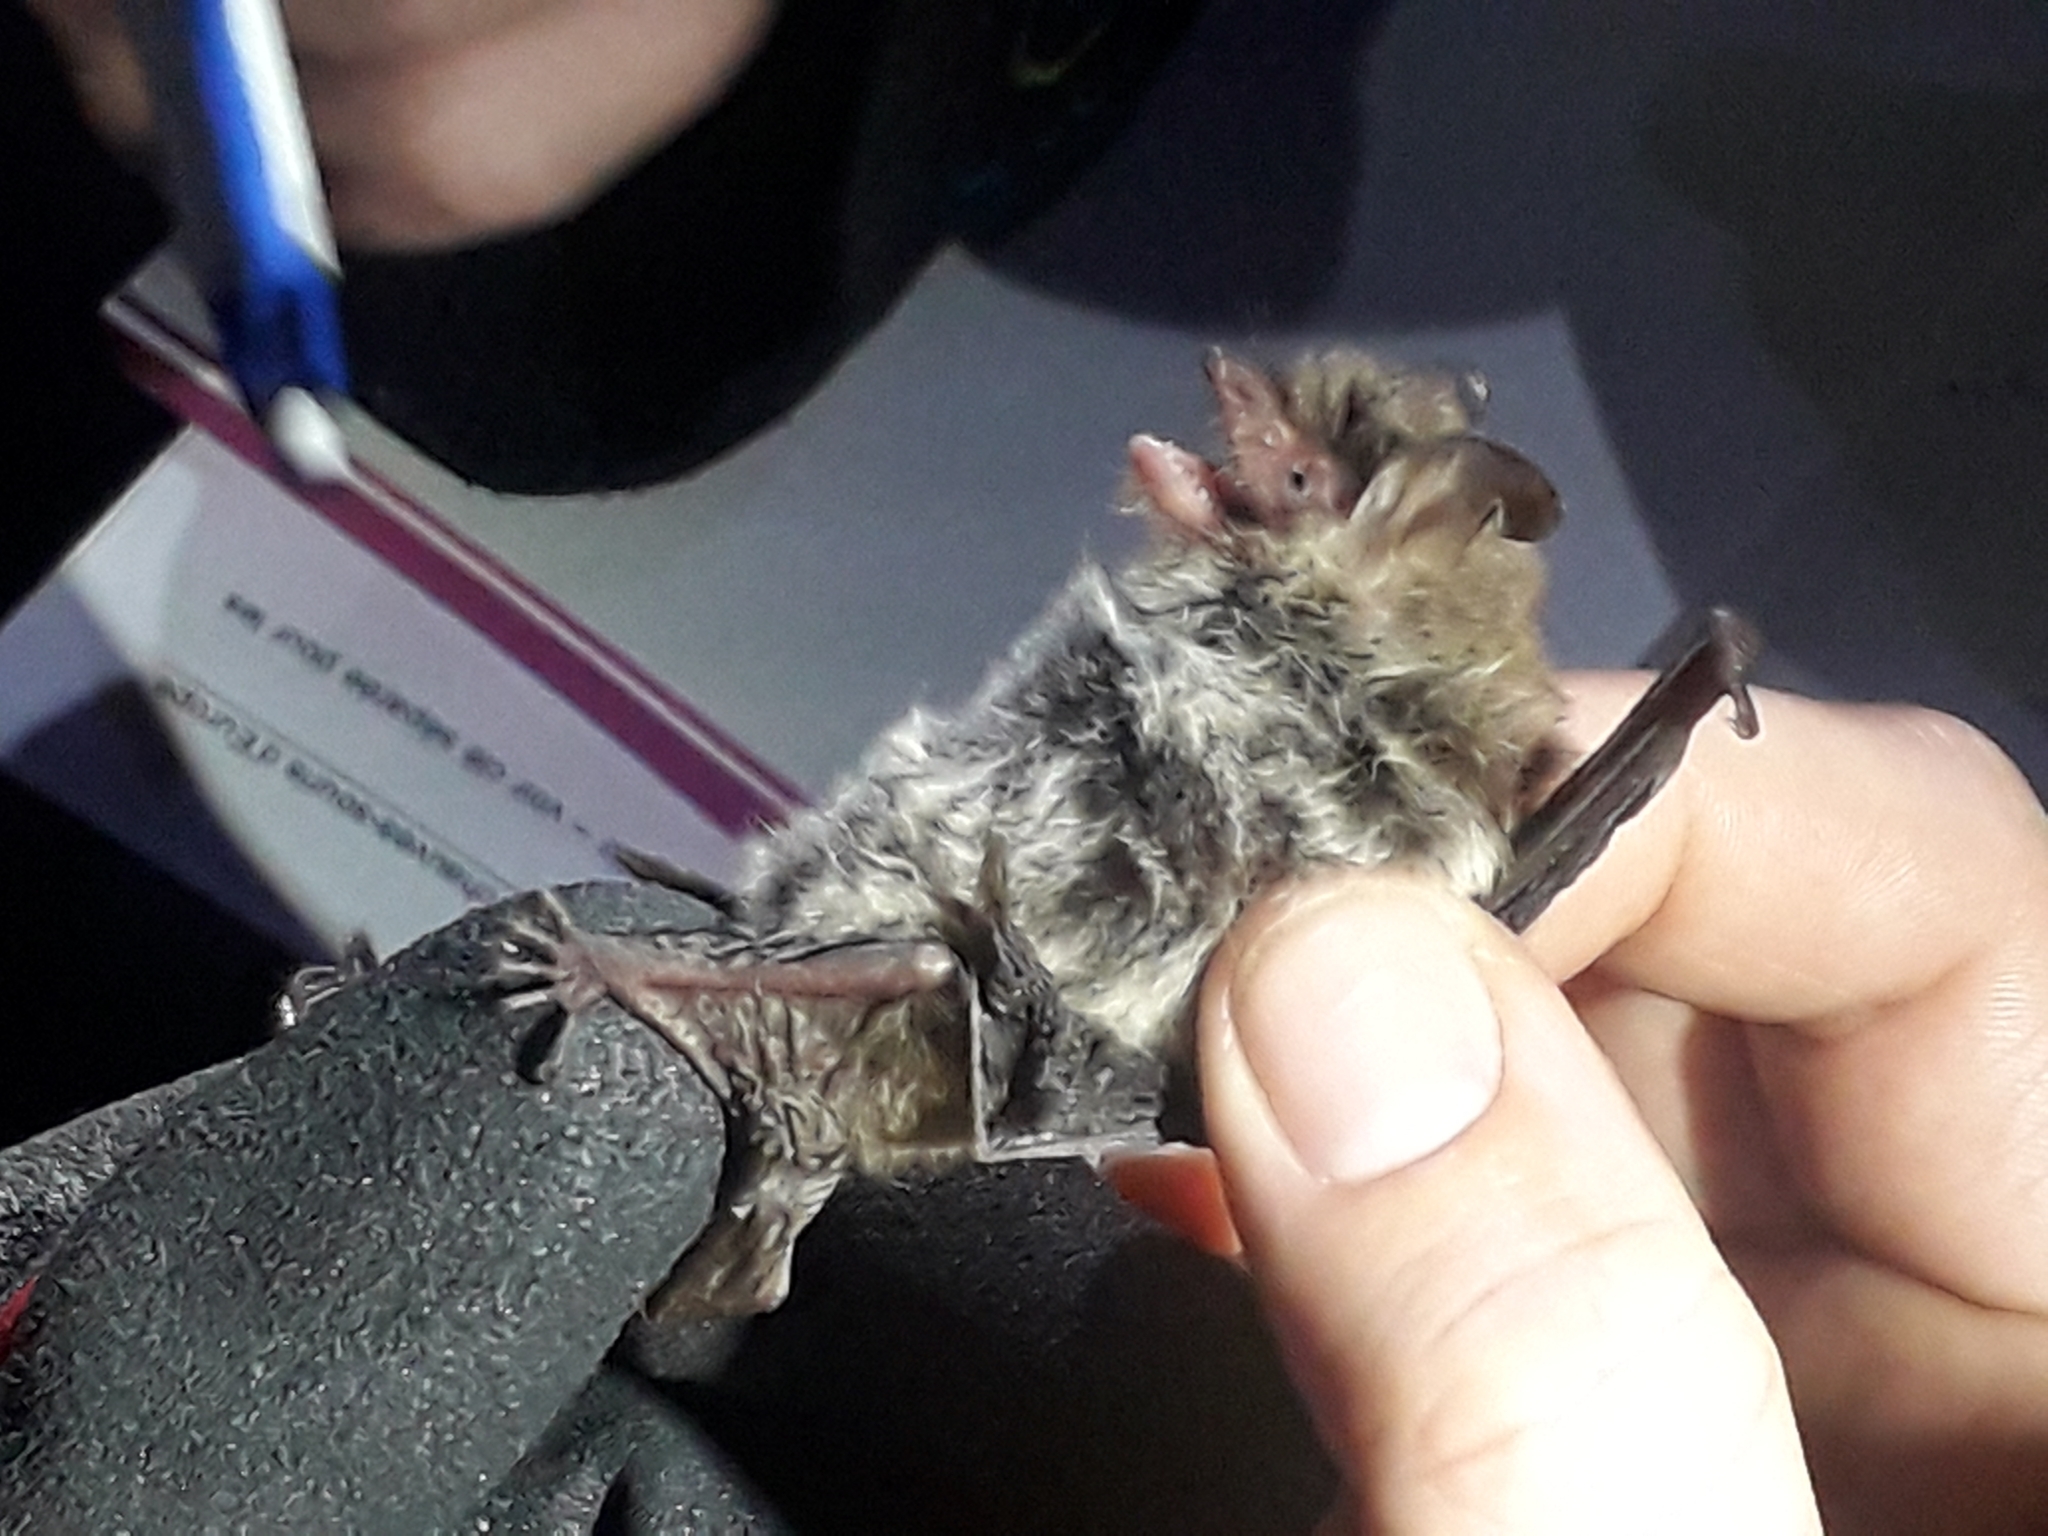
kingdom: Animalia
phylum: Chordata
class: Mammalia
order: Chiroptera
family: Vespertilionidae
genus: Myotis
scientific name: Myotis crypticus
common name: Cryptic myotis
